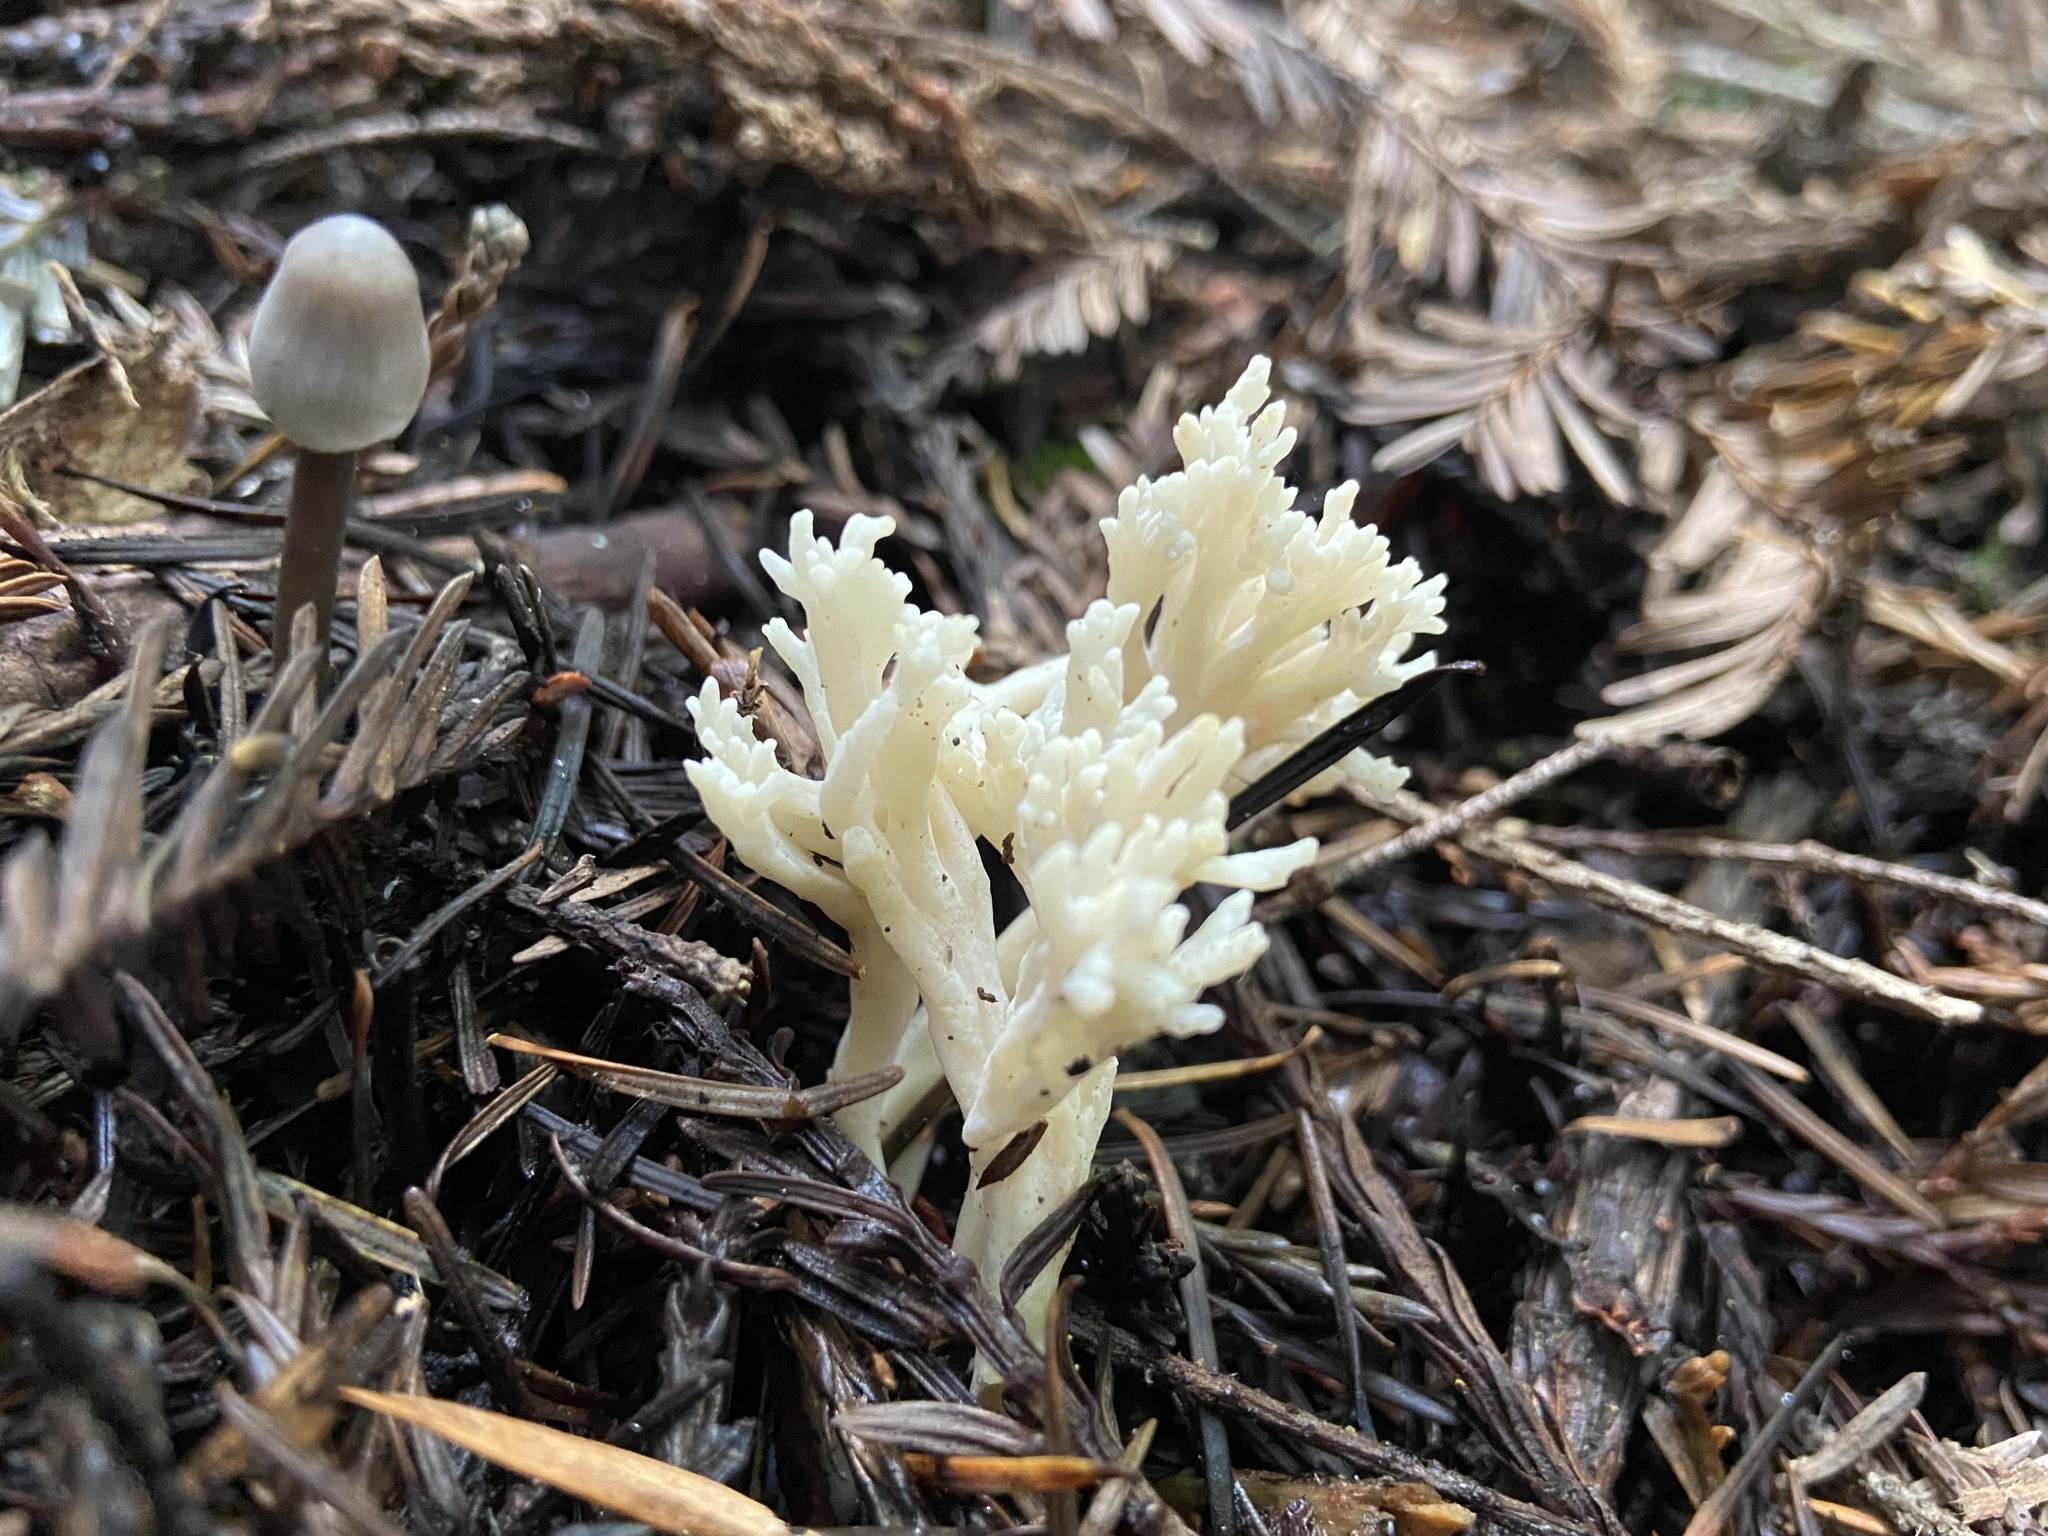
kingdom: Fungi
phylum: Basidiomycota
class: Agaricomycetes
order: Agaricales
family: Clavariaceae
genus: Ramariopsis
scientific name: Ramariopsis kunzei
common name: Ivory coral
